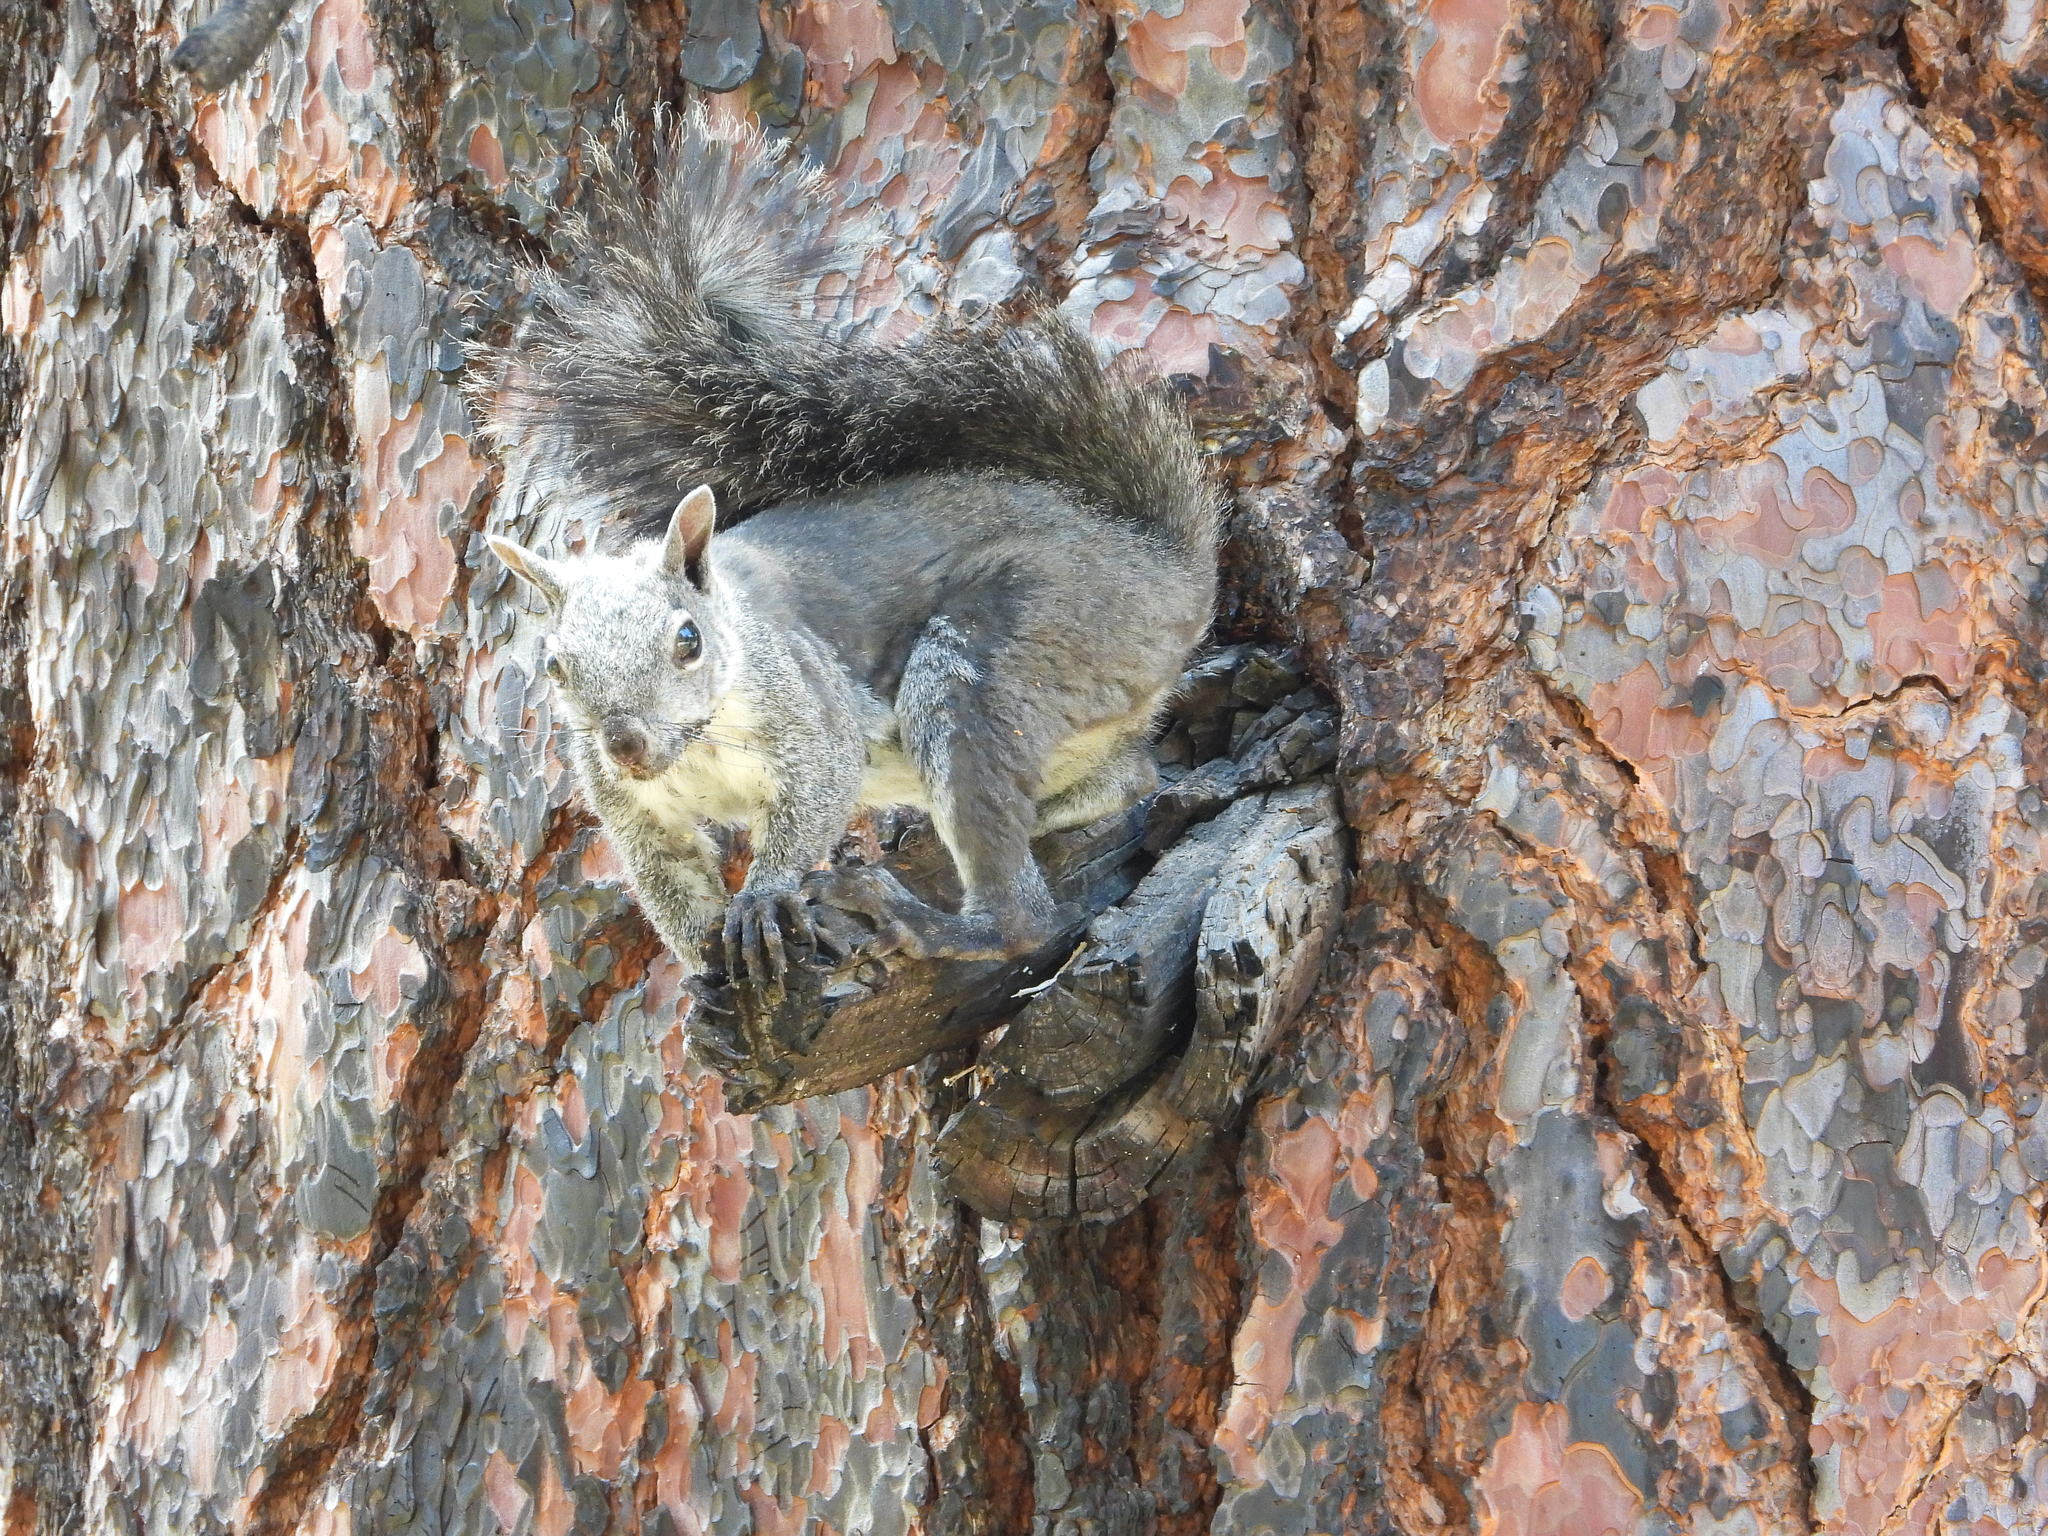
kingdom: Animalia
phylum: Chordata
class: Mammalia
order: Rodentia
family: Sciuridae
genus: Sciurus
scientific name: Sciurus griseus
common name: Western gray squirrel
